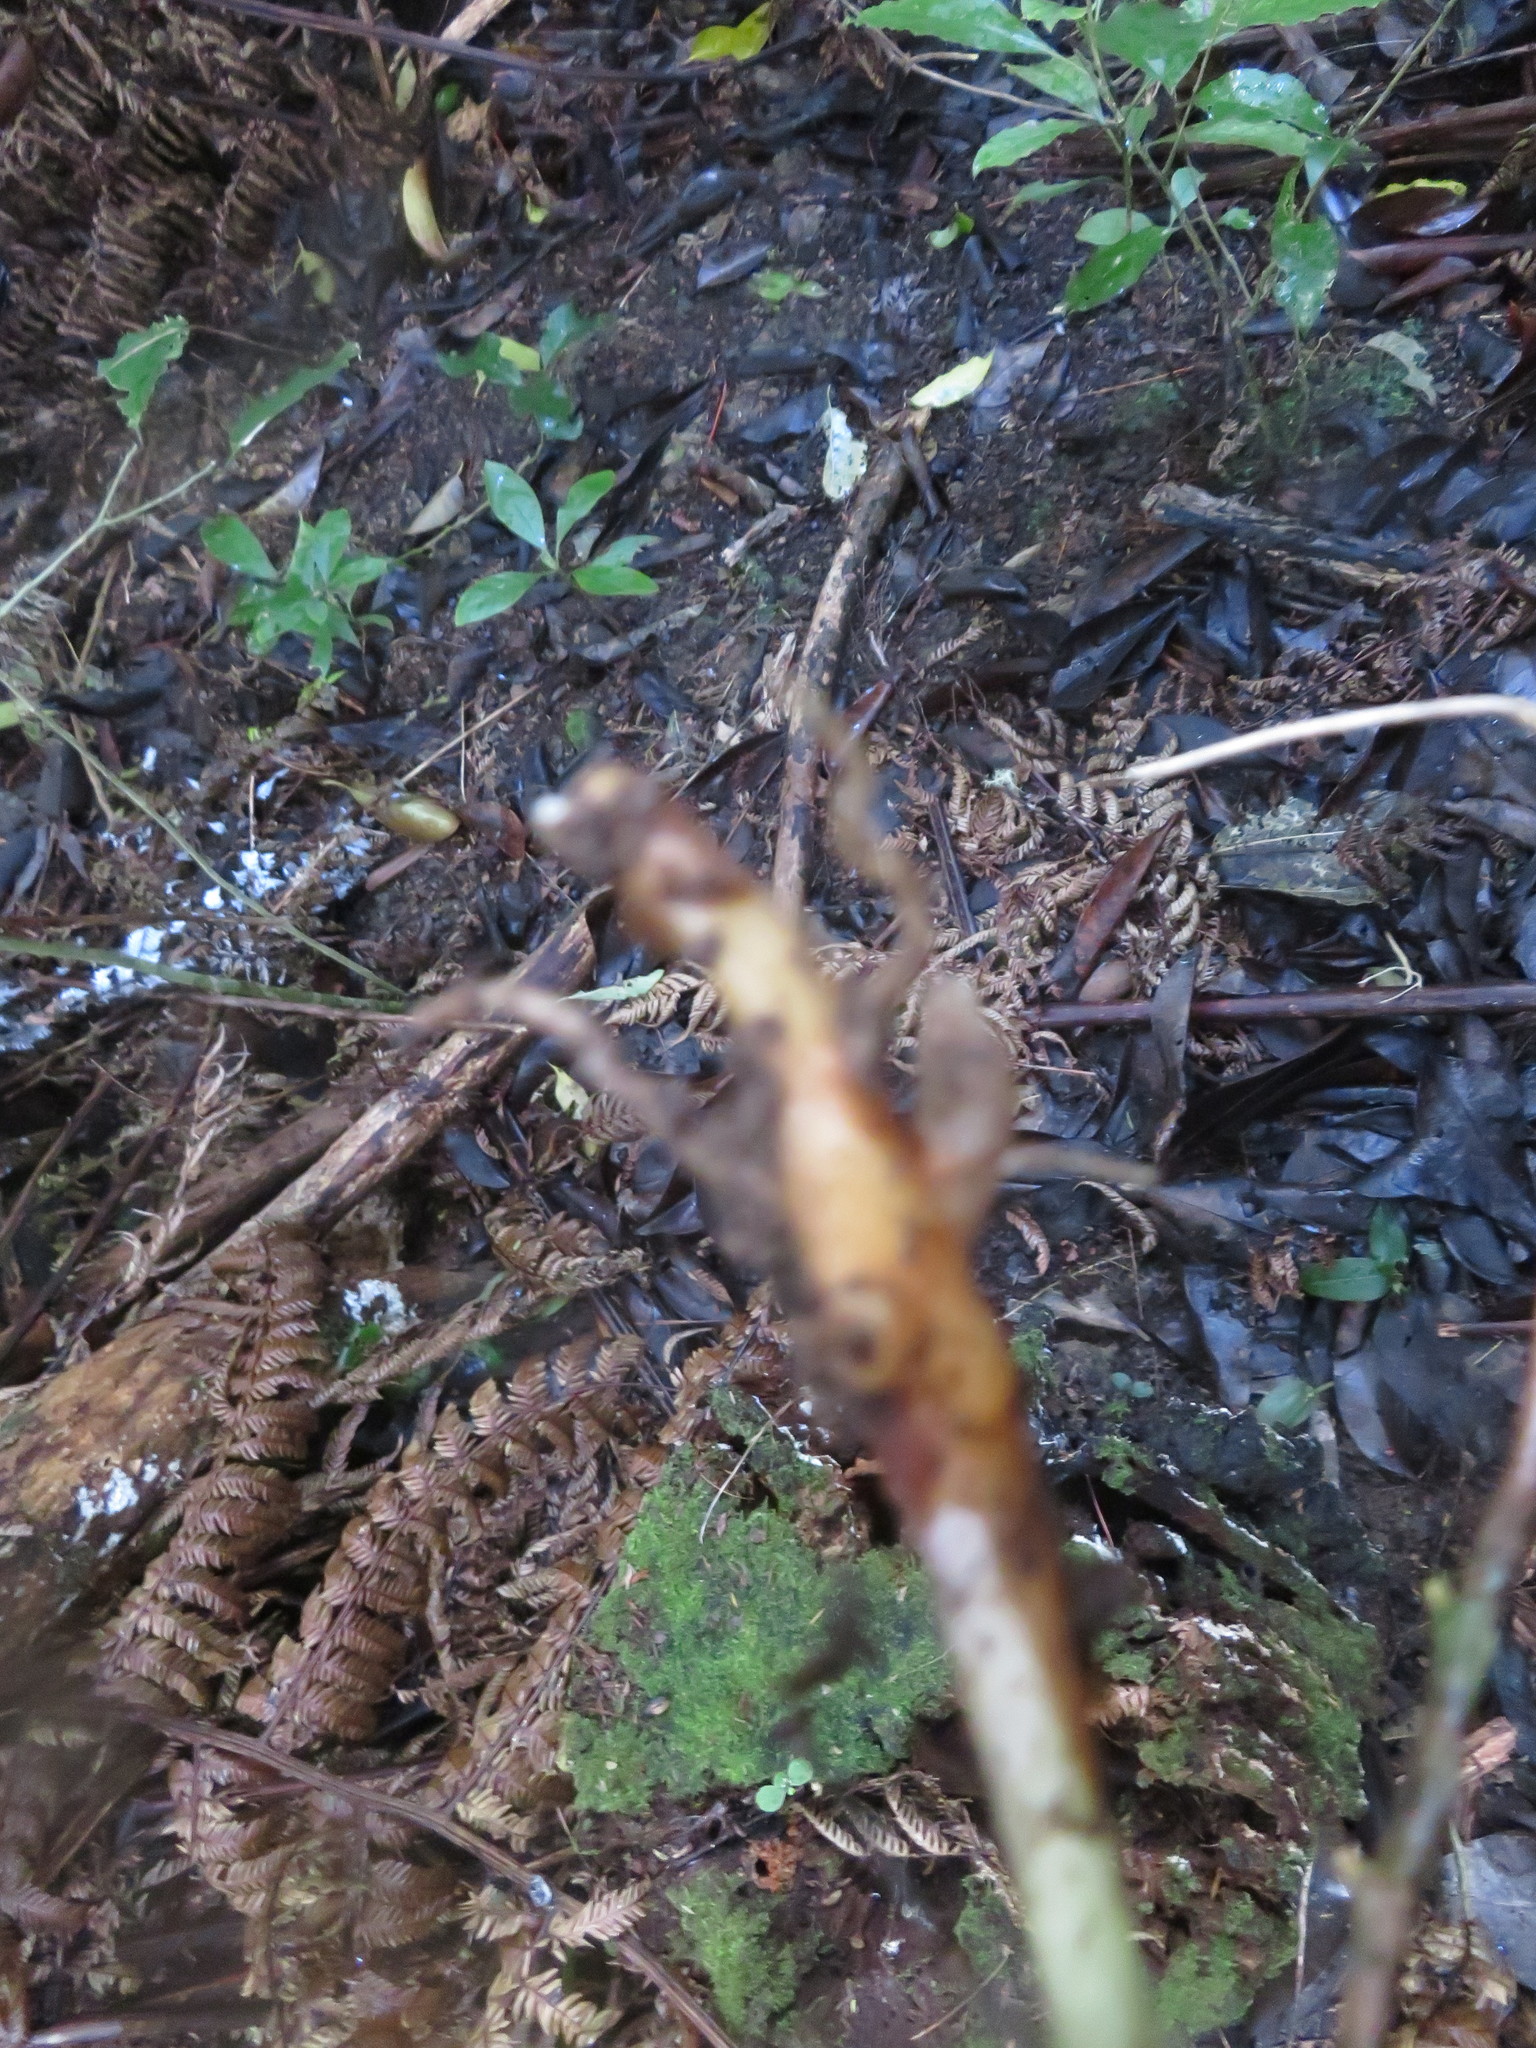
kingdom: Plantae
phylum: Tracheophyta
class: Liliopsida
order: Zingiberales
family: Zingiberaceae
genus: Hedychium
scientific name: Hedychium gardnerianum
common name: Himalayan ginger
